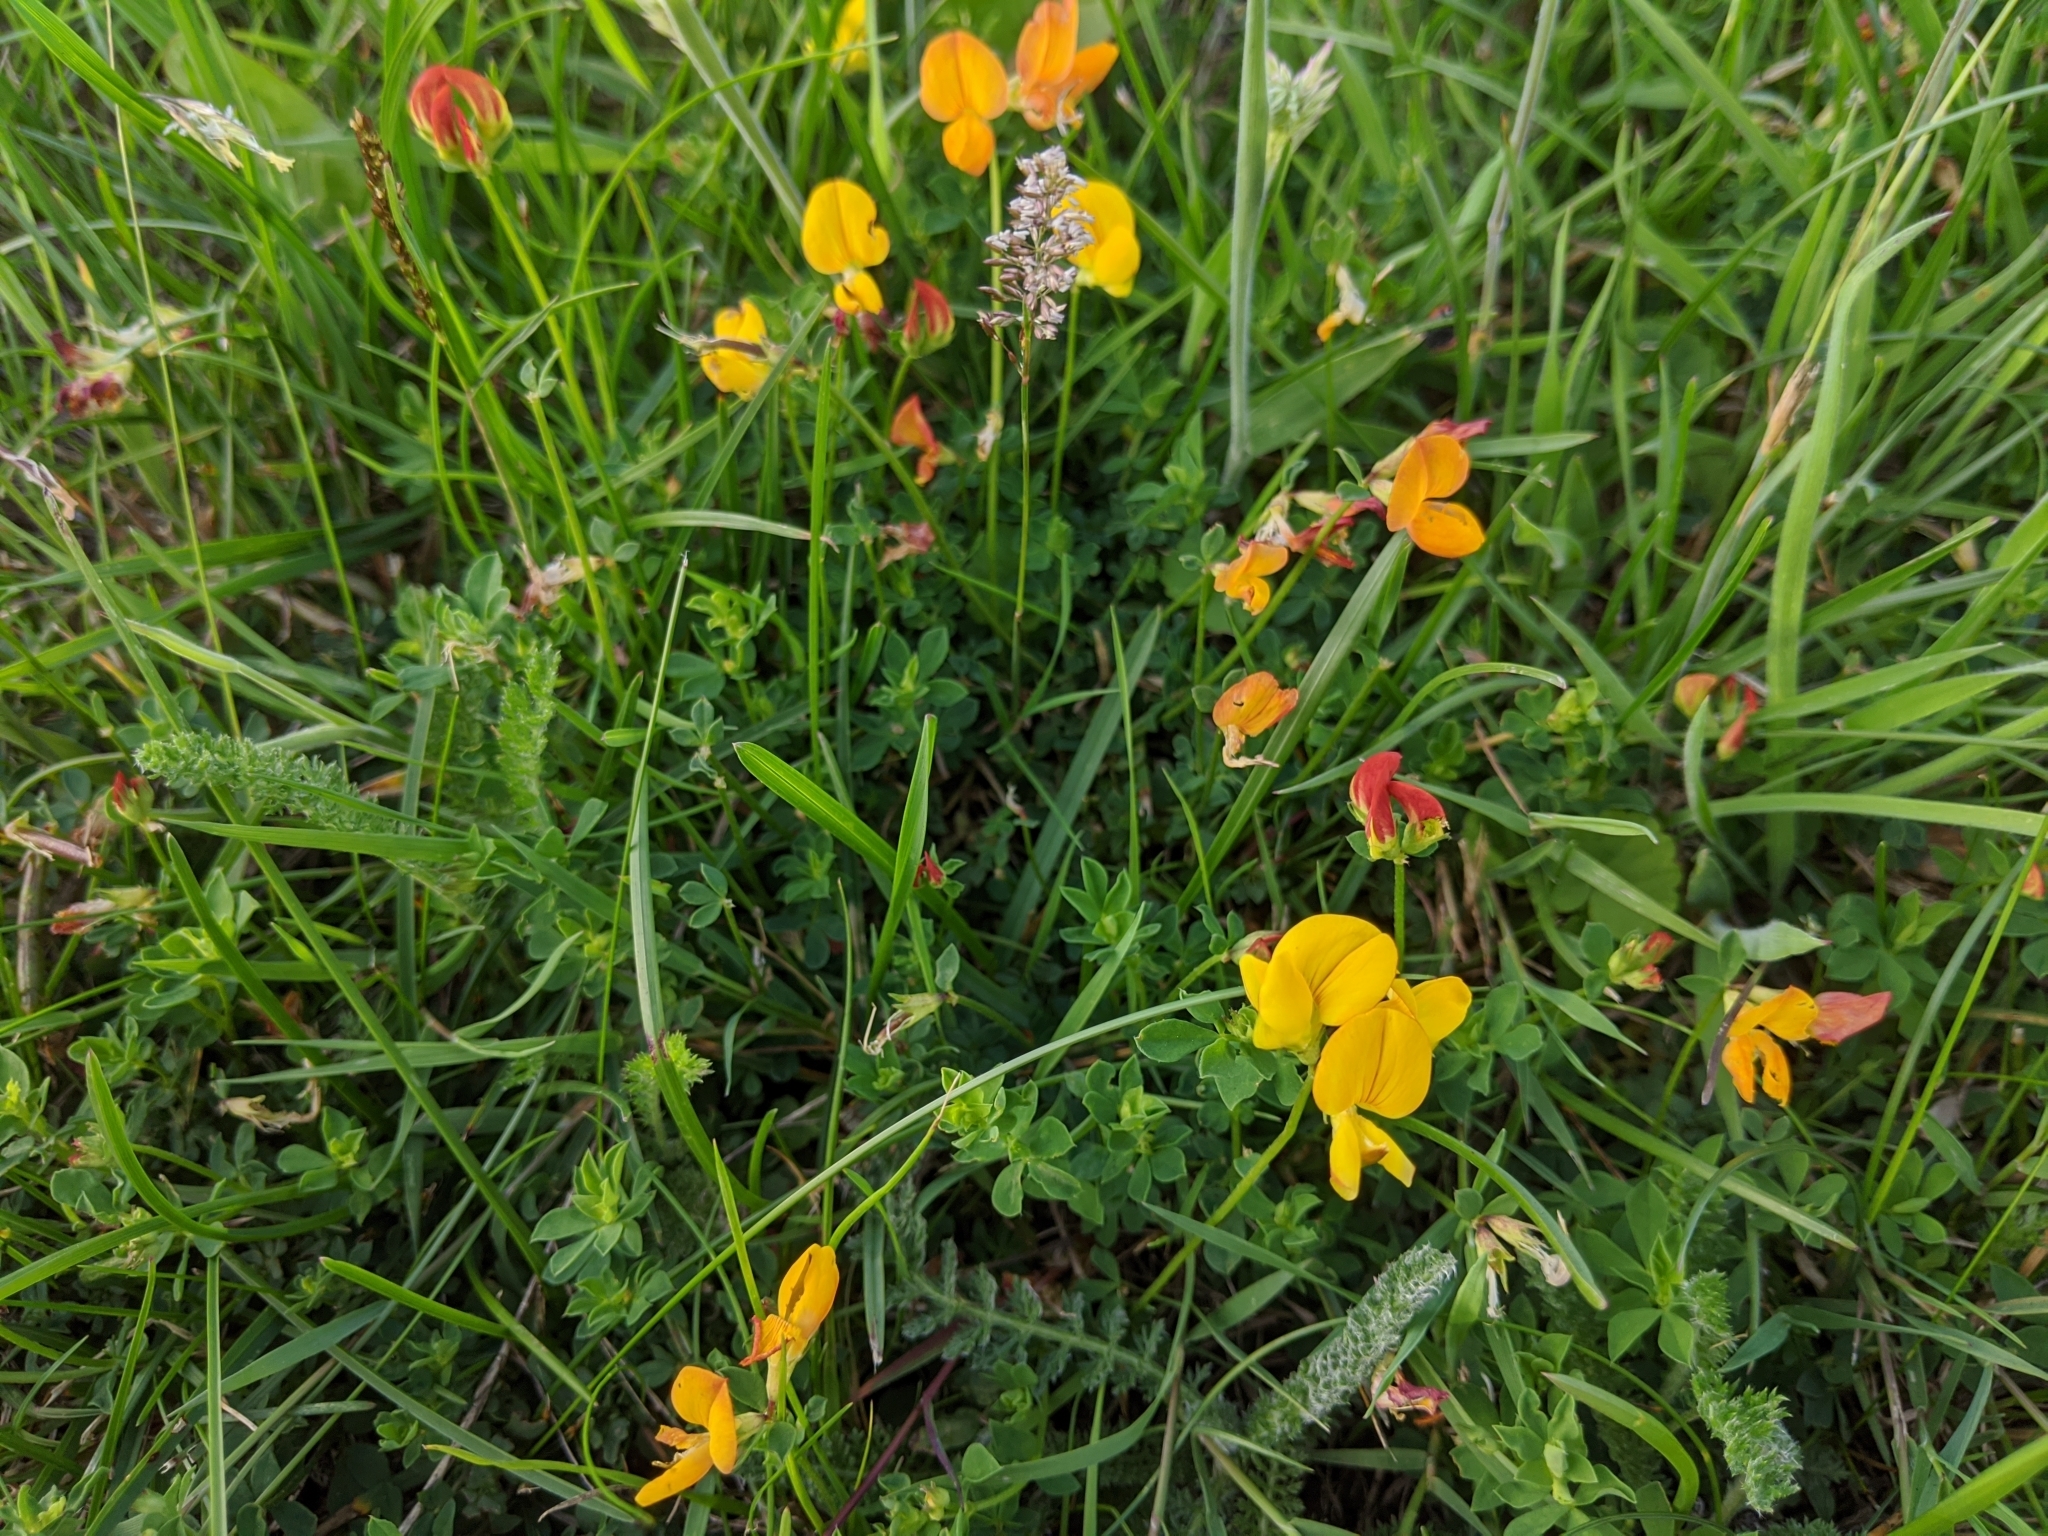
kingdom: Plantae
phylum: Tracheophyta
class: Magnoliopsida
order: Fabales
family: Fabaceae
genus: Lotus
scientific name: Lotus corniculatus
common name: Common bird's-foot-trefoil
